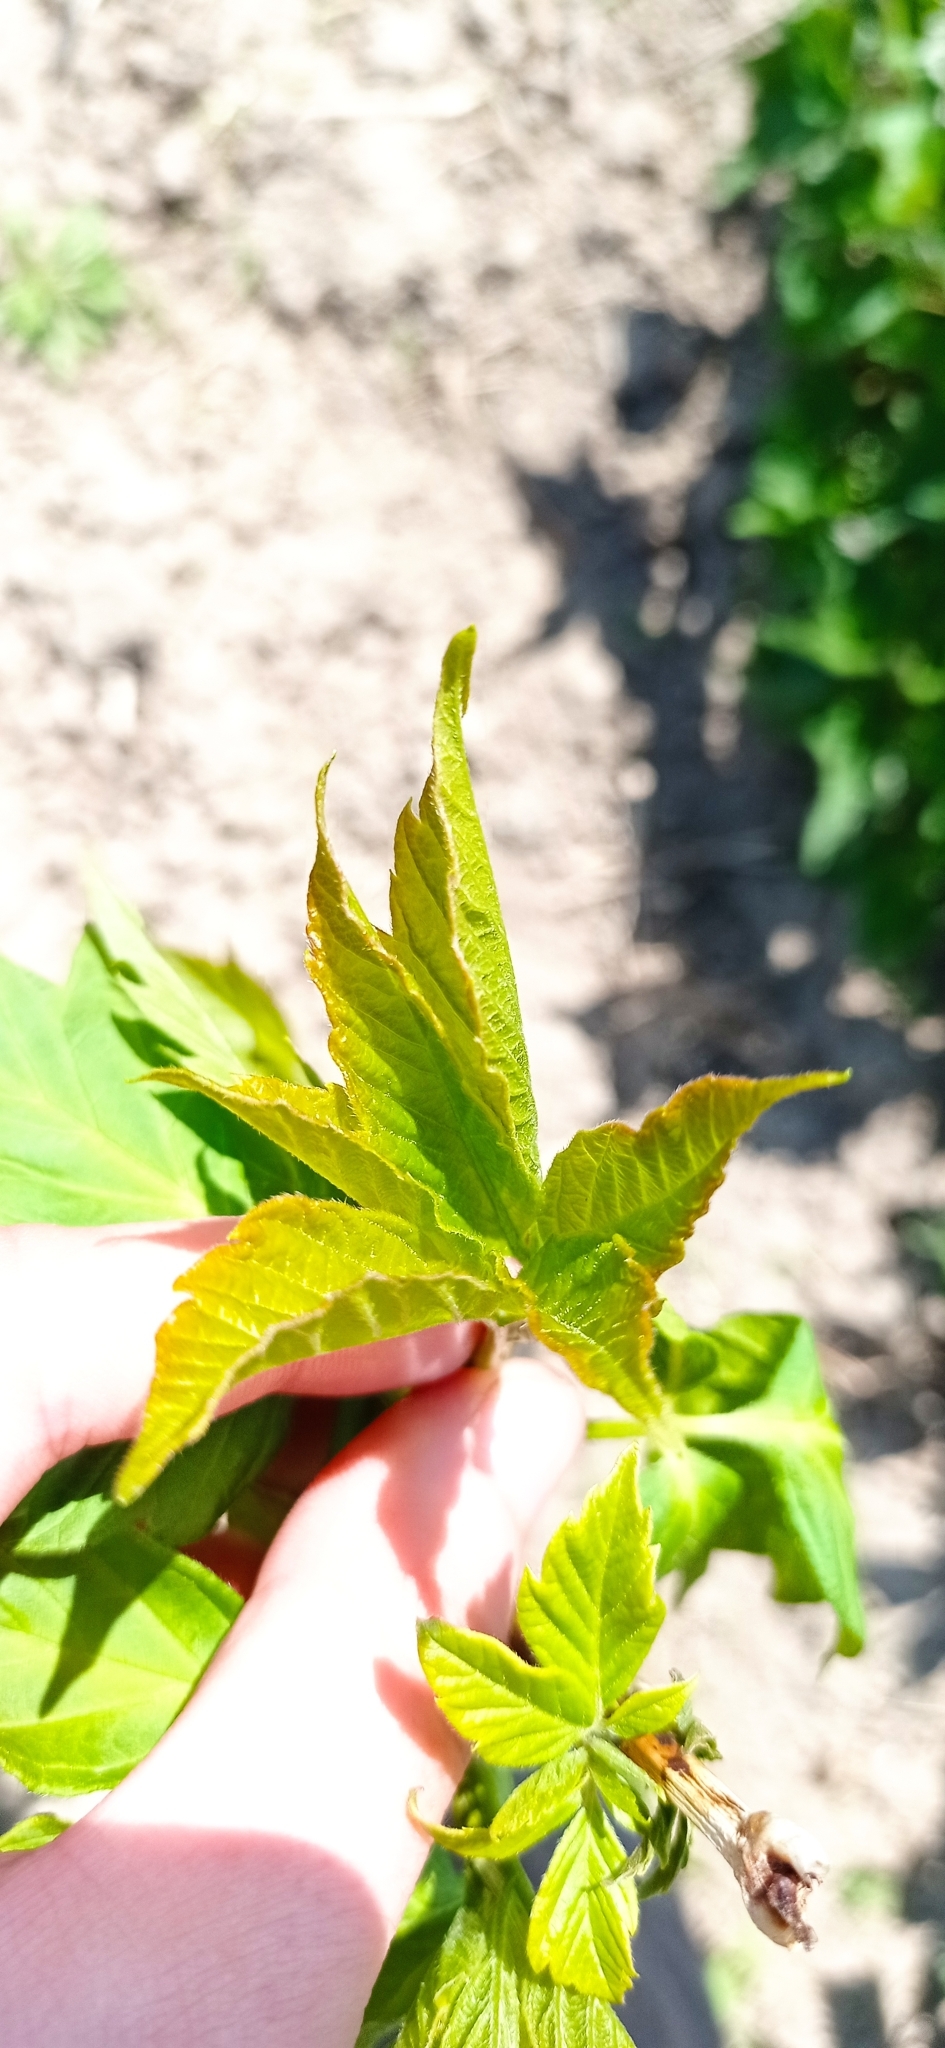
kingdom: Plantae
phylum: Tracheophyta
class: Magnoliopsida
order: Sapindales
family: Sapindaceae
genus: Acer
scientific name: Acer negundo
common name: Ashleaf maple
